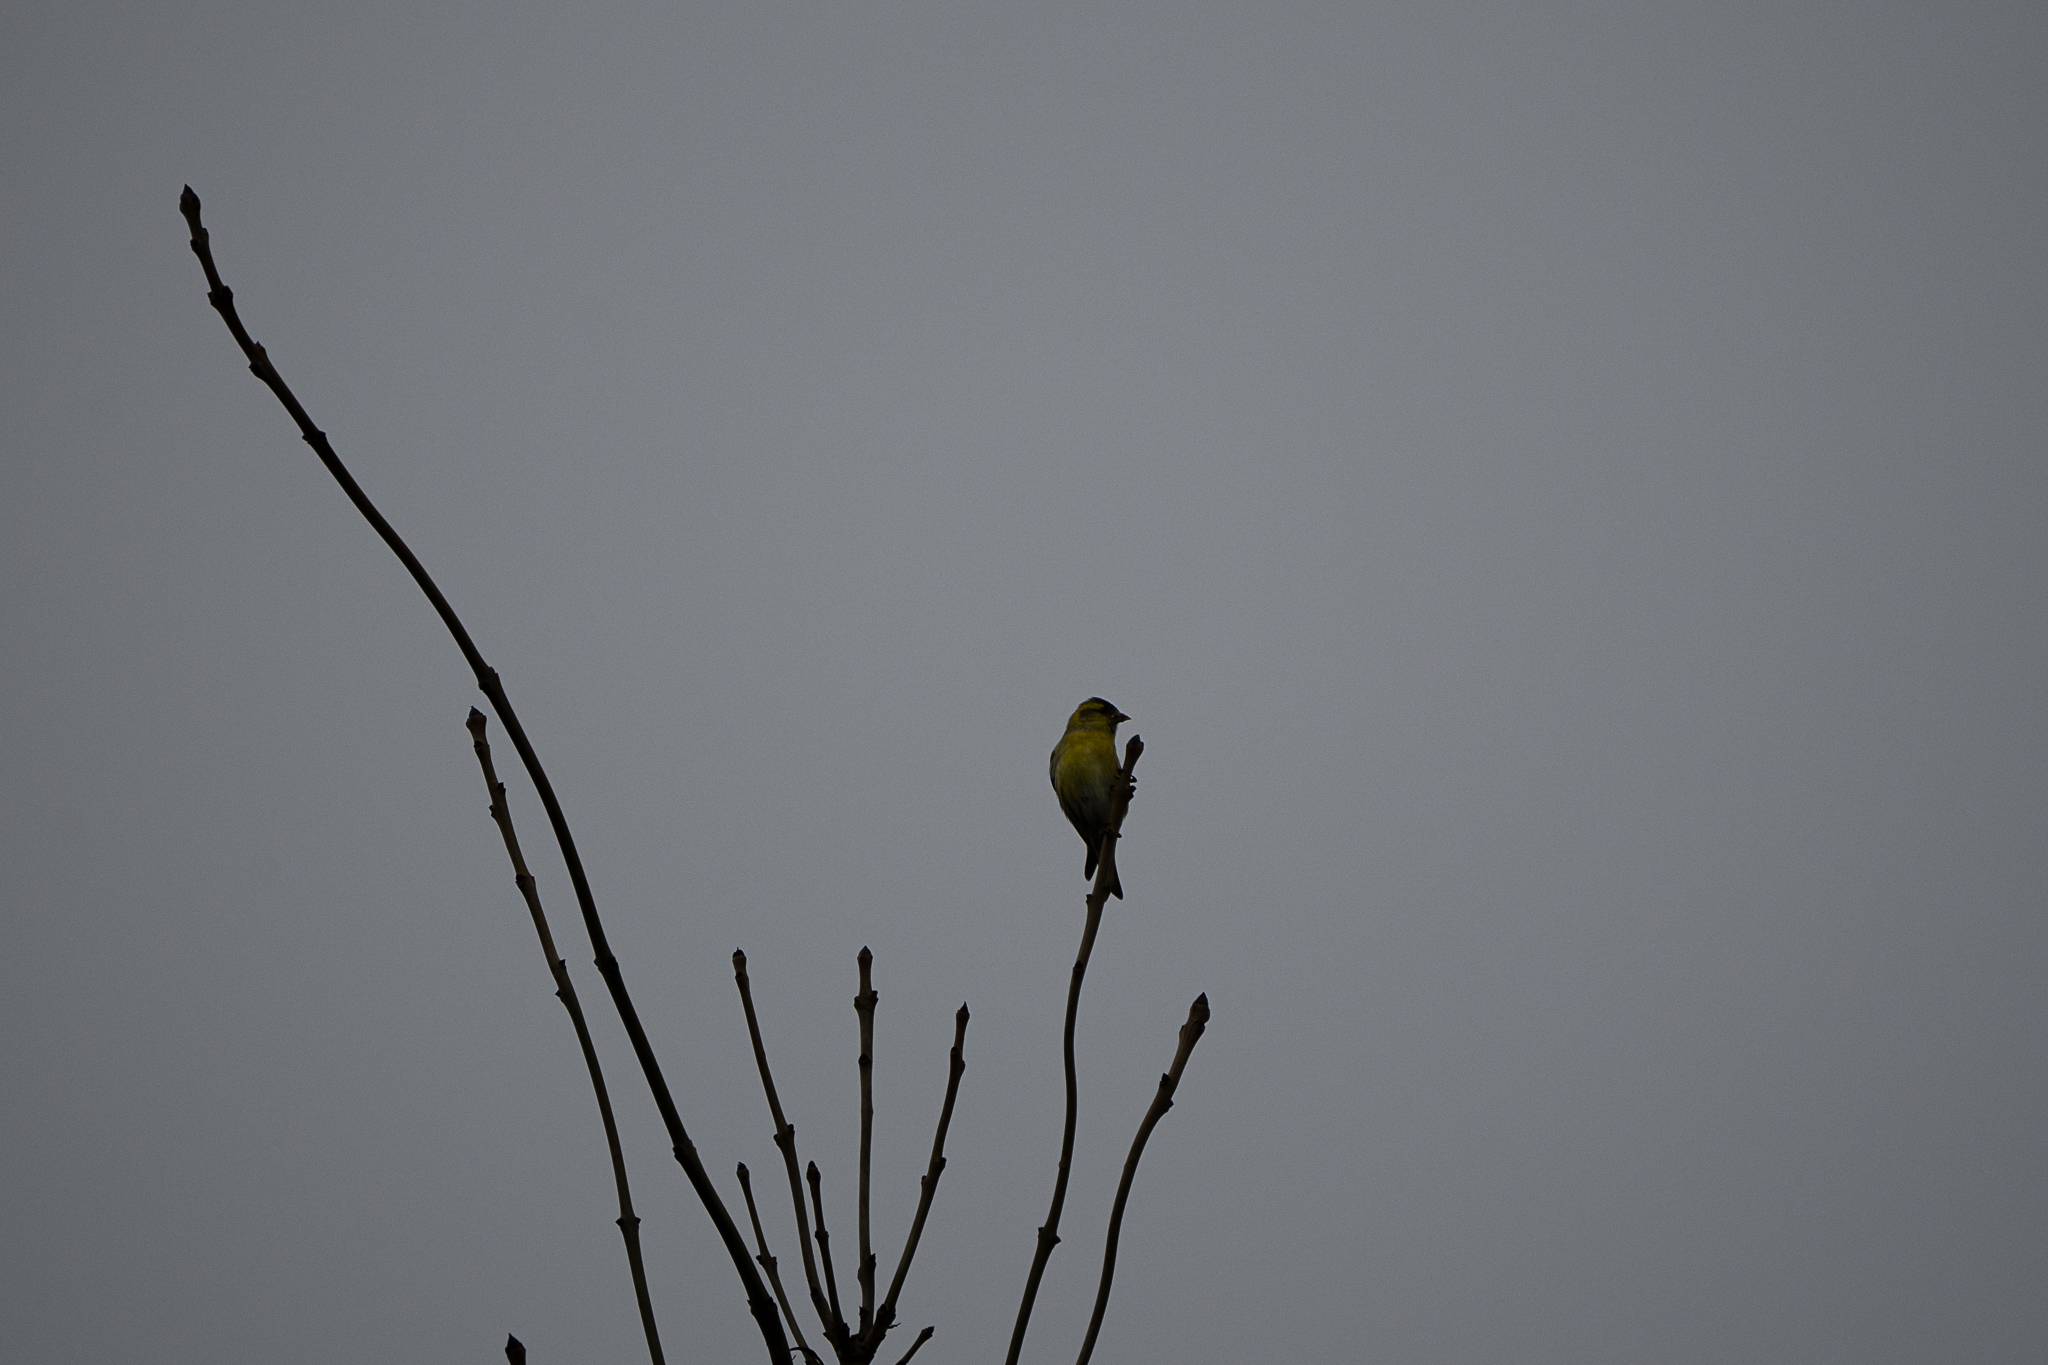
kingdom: Animalia
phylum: Chordata
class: Aves
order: Passeriformes
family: Fringillidae
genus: Spinus
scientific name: Spinus spinus
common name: Eurasian siskin
